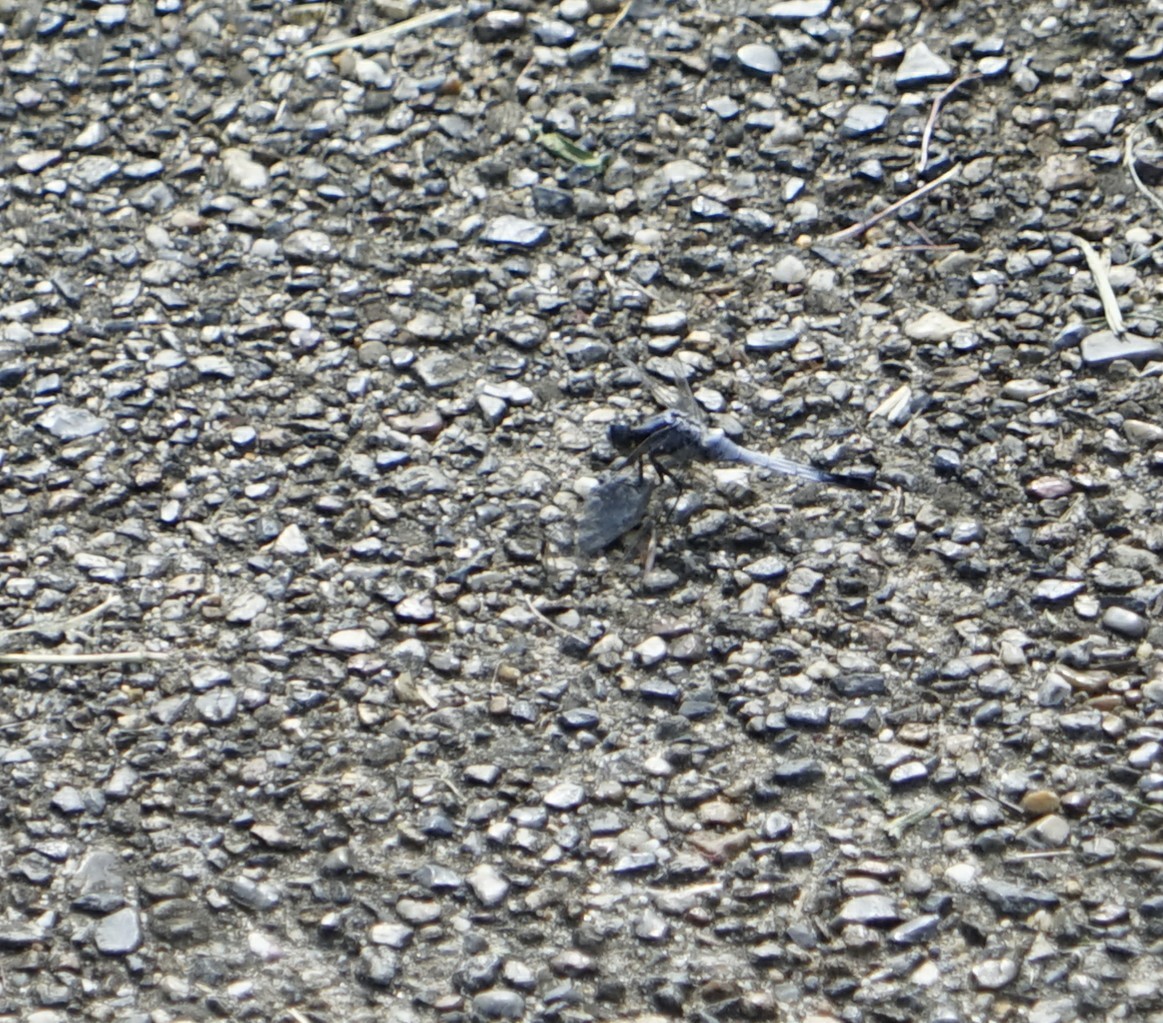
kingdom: Animalia
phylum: Arthropoda
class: Insecta
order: Odonata
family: Libellulidae
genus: Orthetrum
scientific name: Orthetrum albistylum
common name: White-tailed skimmer
